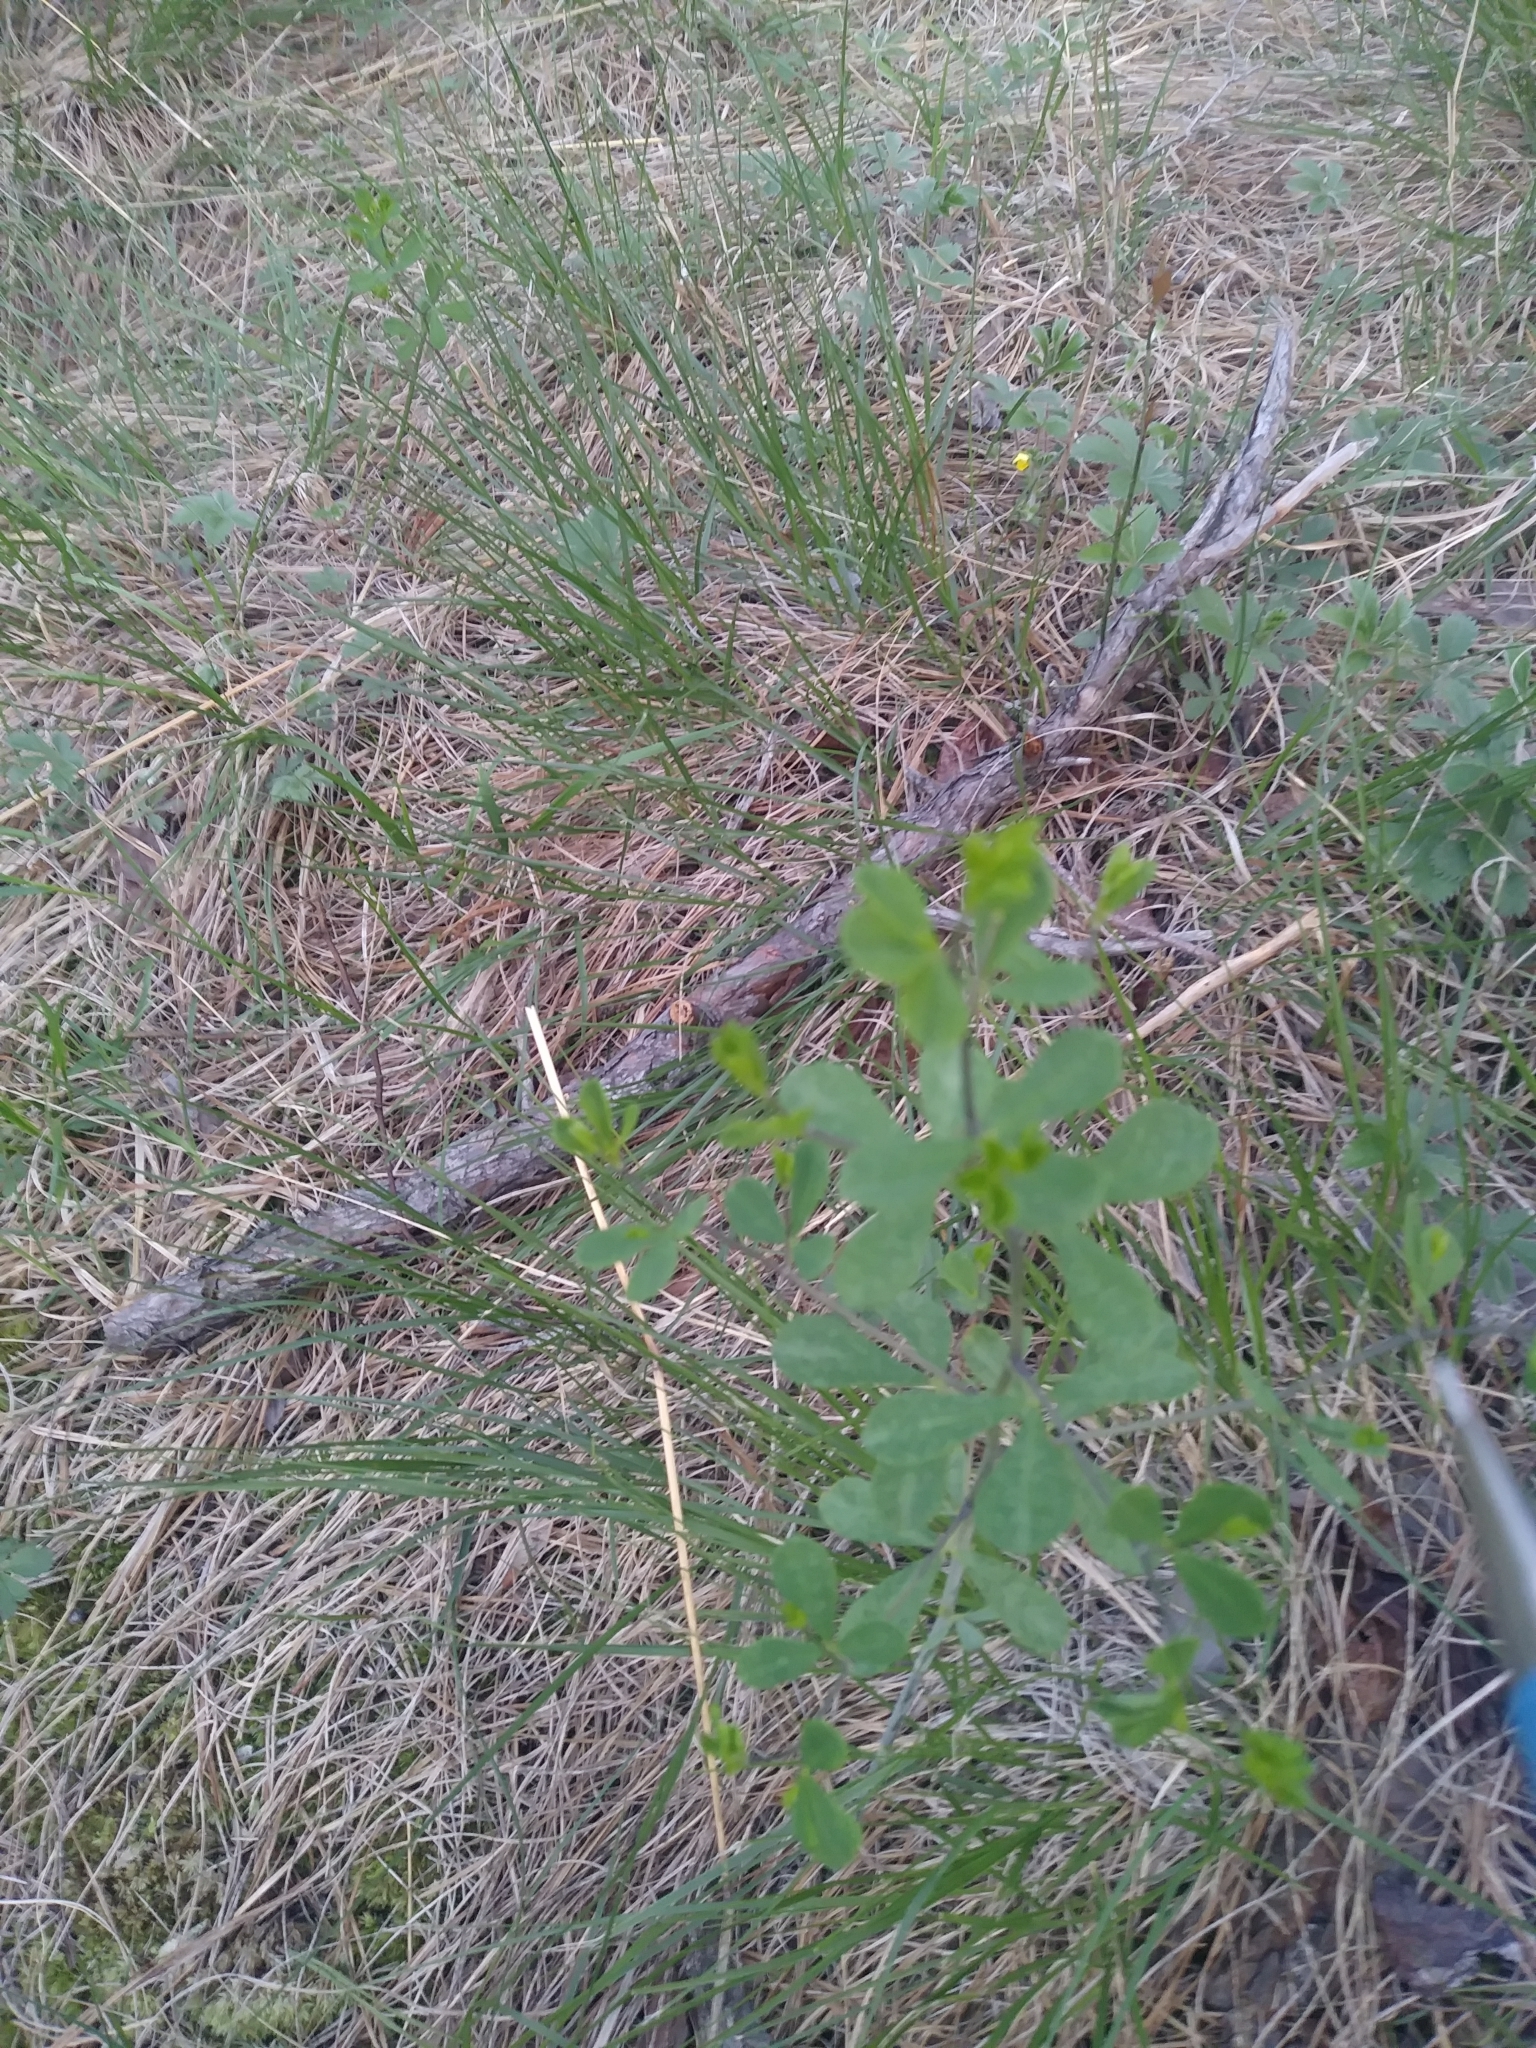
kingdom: Plantae
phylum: Tracheophyta
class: Magnoliopsida
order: Fabales
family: Fabaceae
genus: Baptisia
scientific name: Baptisia tinctoria
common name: Wild indigo
